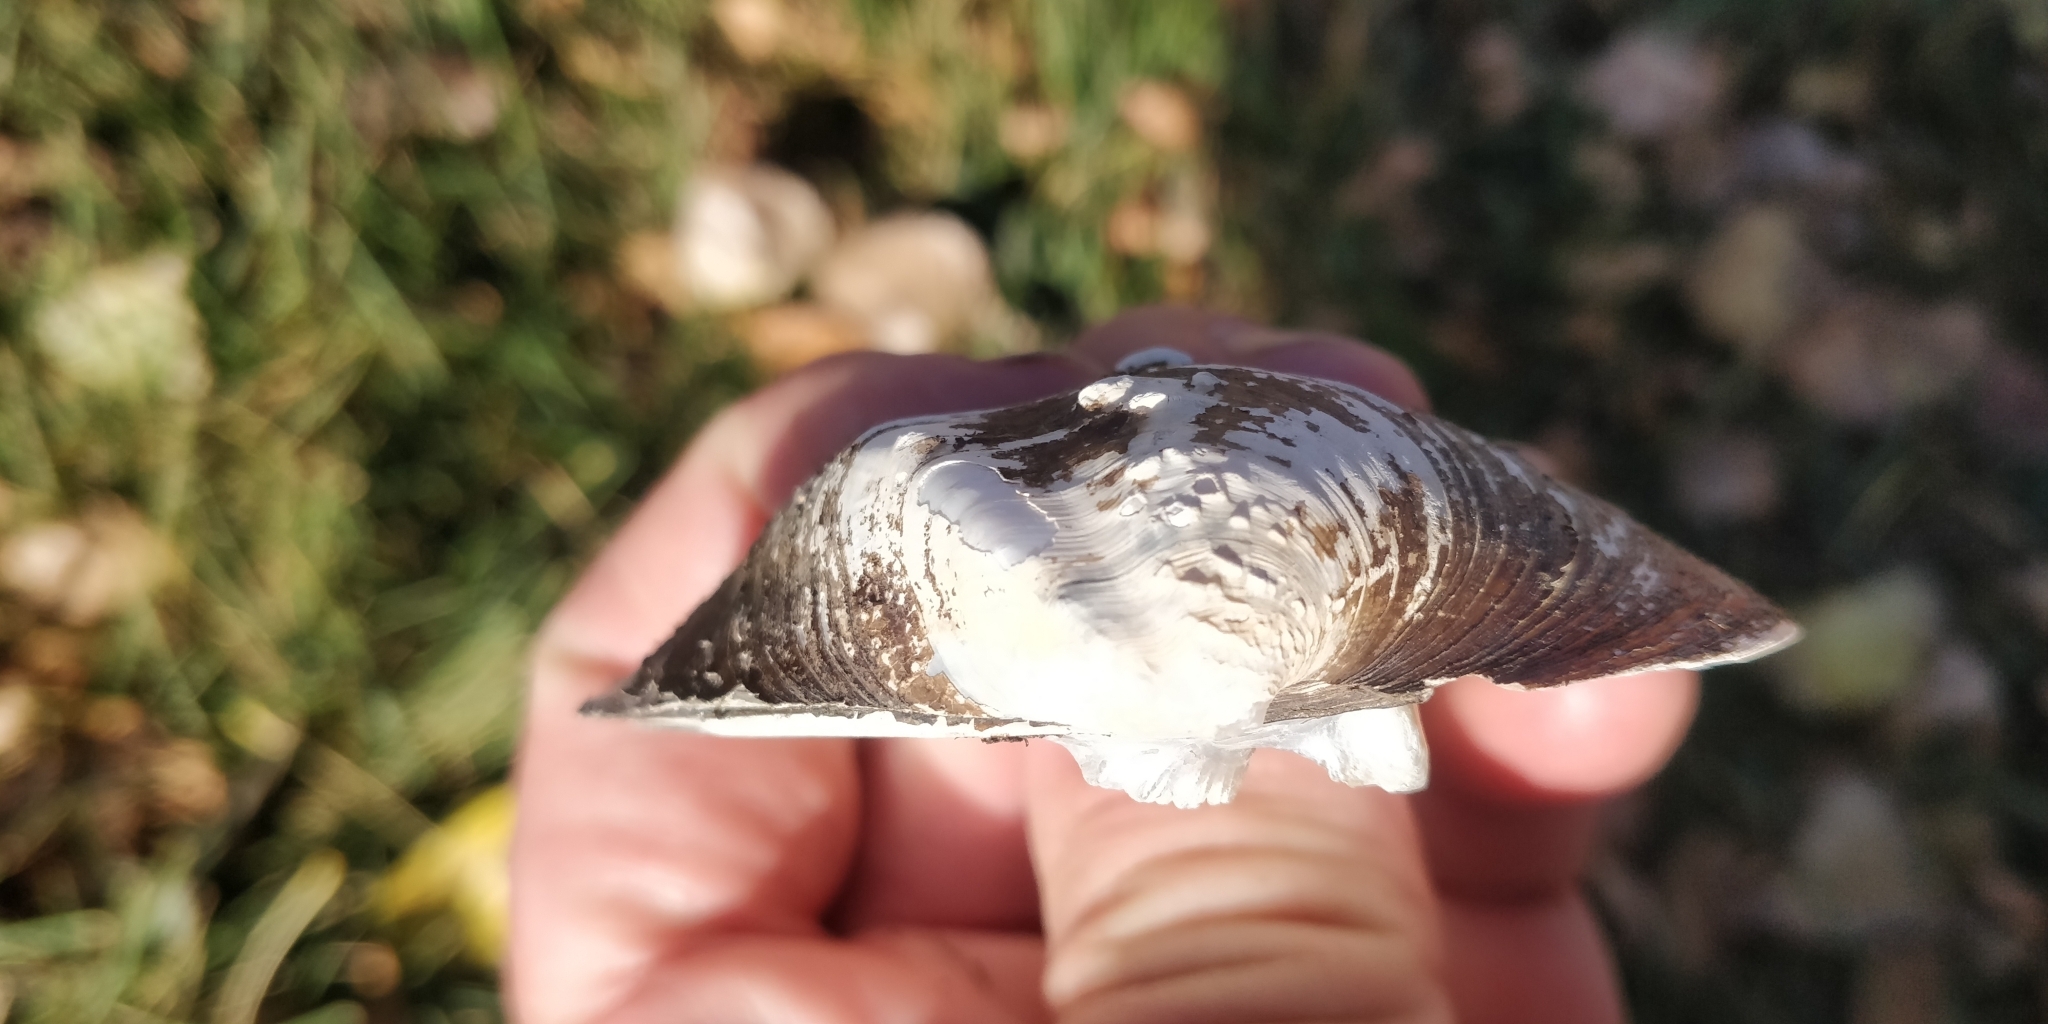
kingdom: Animalia
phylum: Mollusca
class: Bivalvia
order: Unionida
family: Unionidae
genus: Quadrula
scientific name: Quadrula quadrula
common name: Mapleleaf
